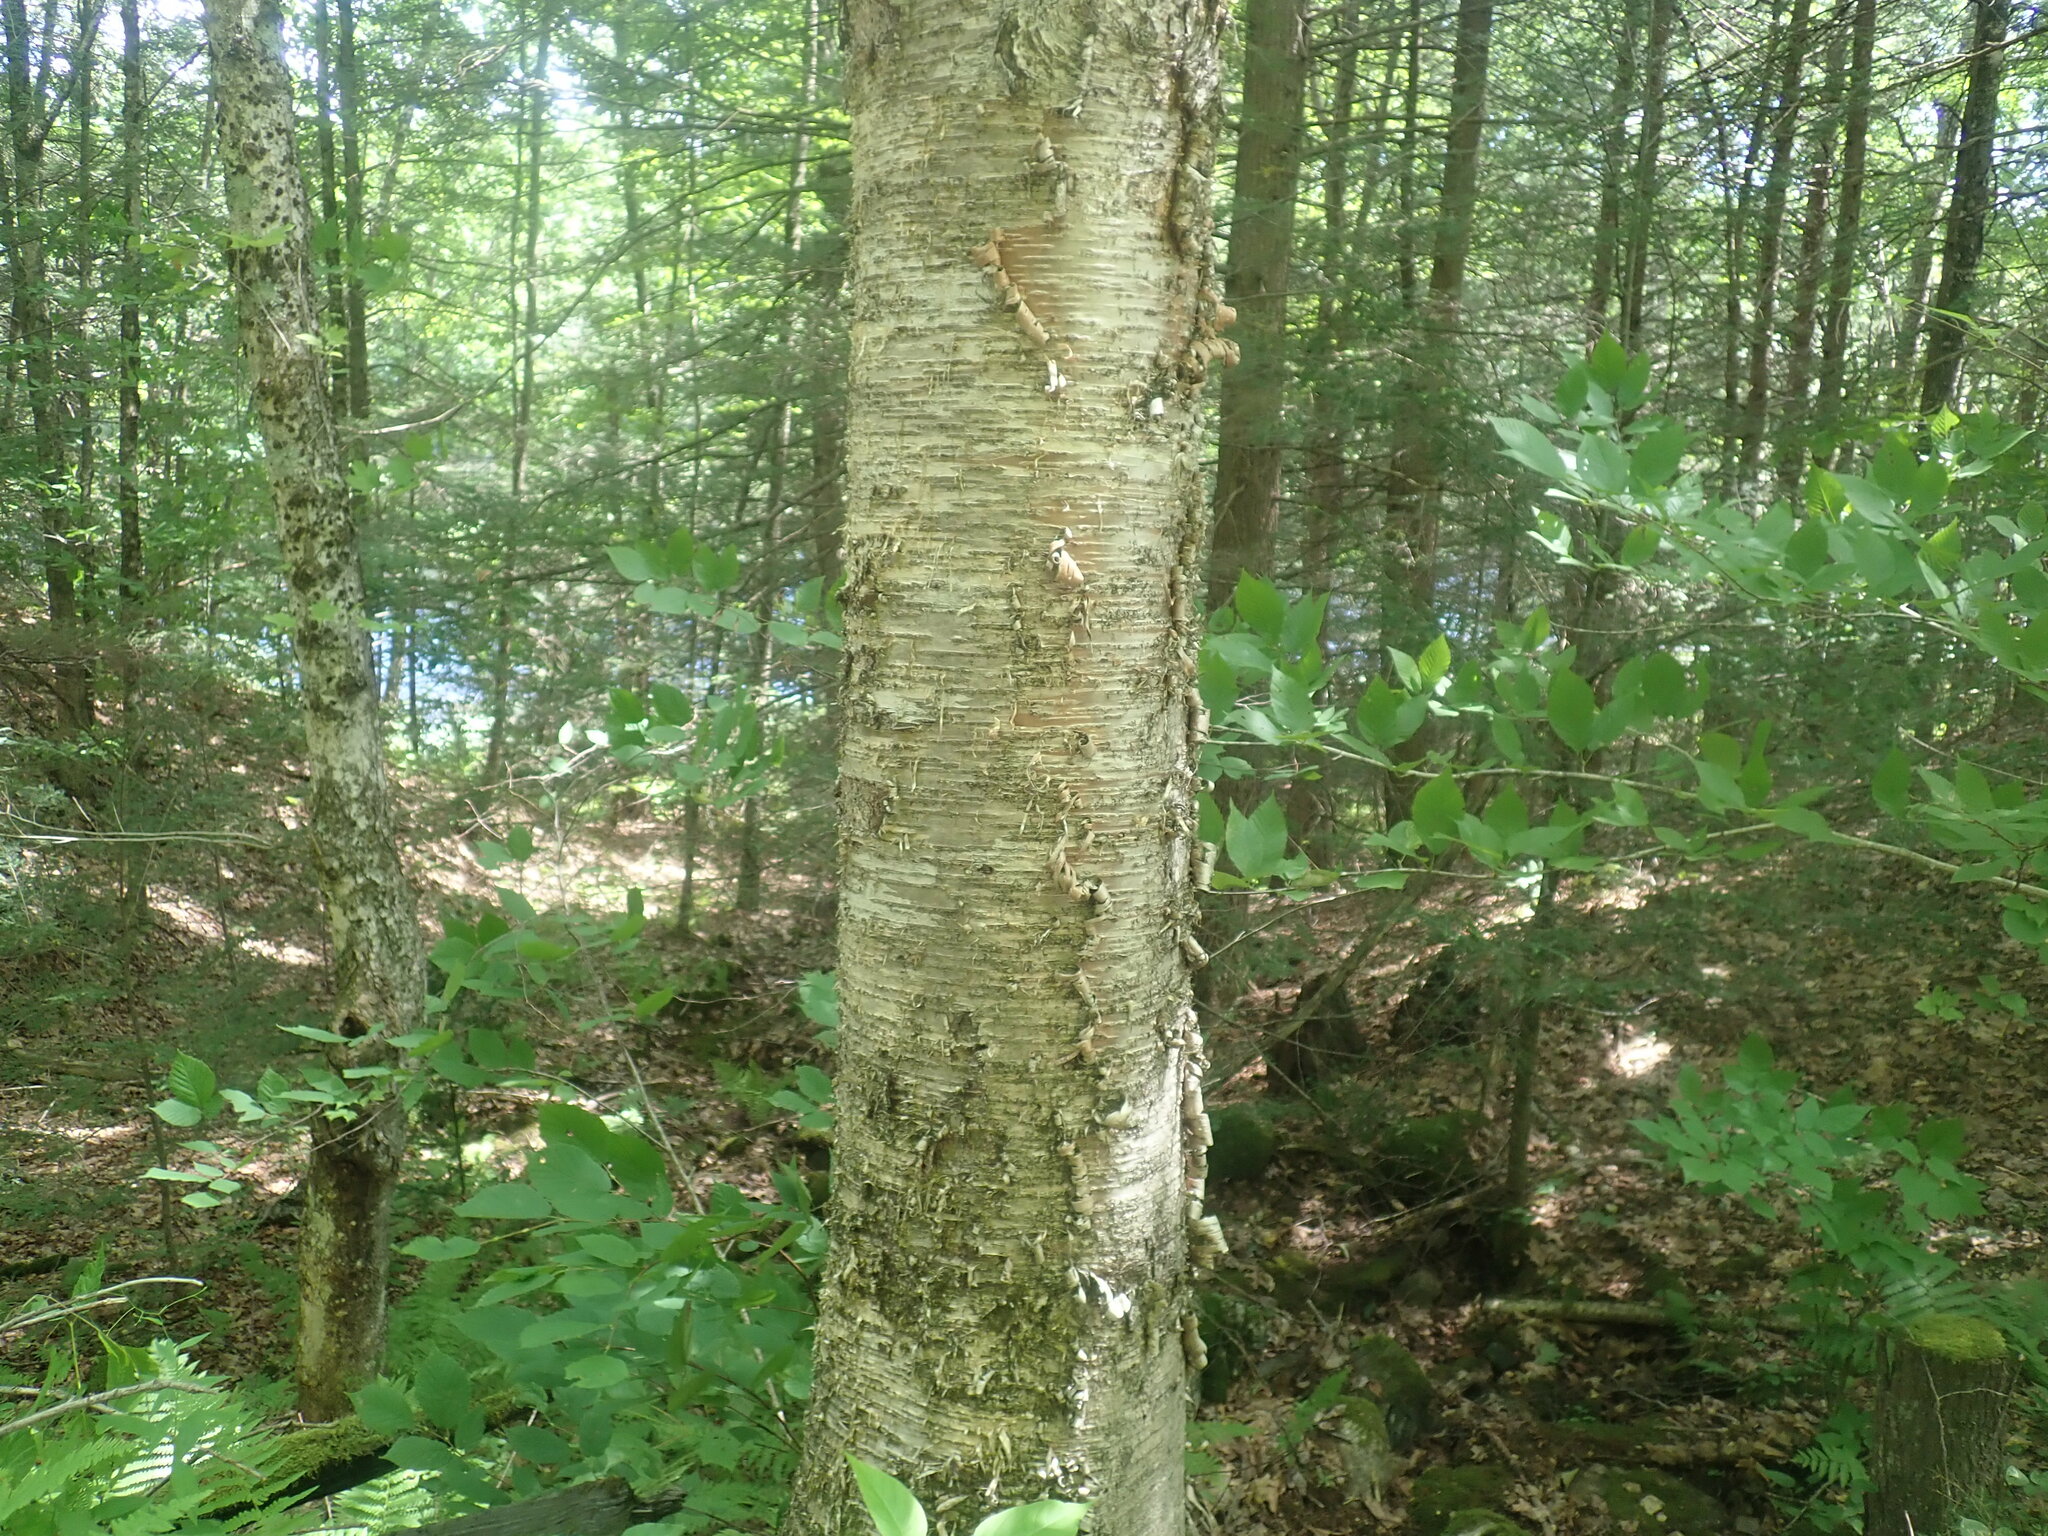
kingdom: Plantae
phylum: Tracheophyta
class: Magnoliopsida
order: Fagales
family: Betulaceae
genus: Betula
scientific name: Betula alleghaniensis
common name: Yellow birch
